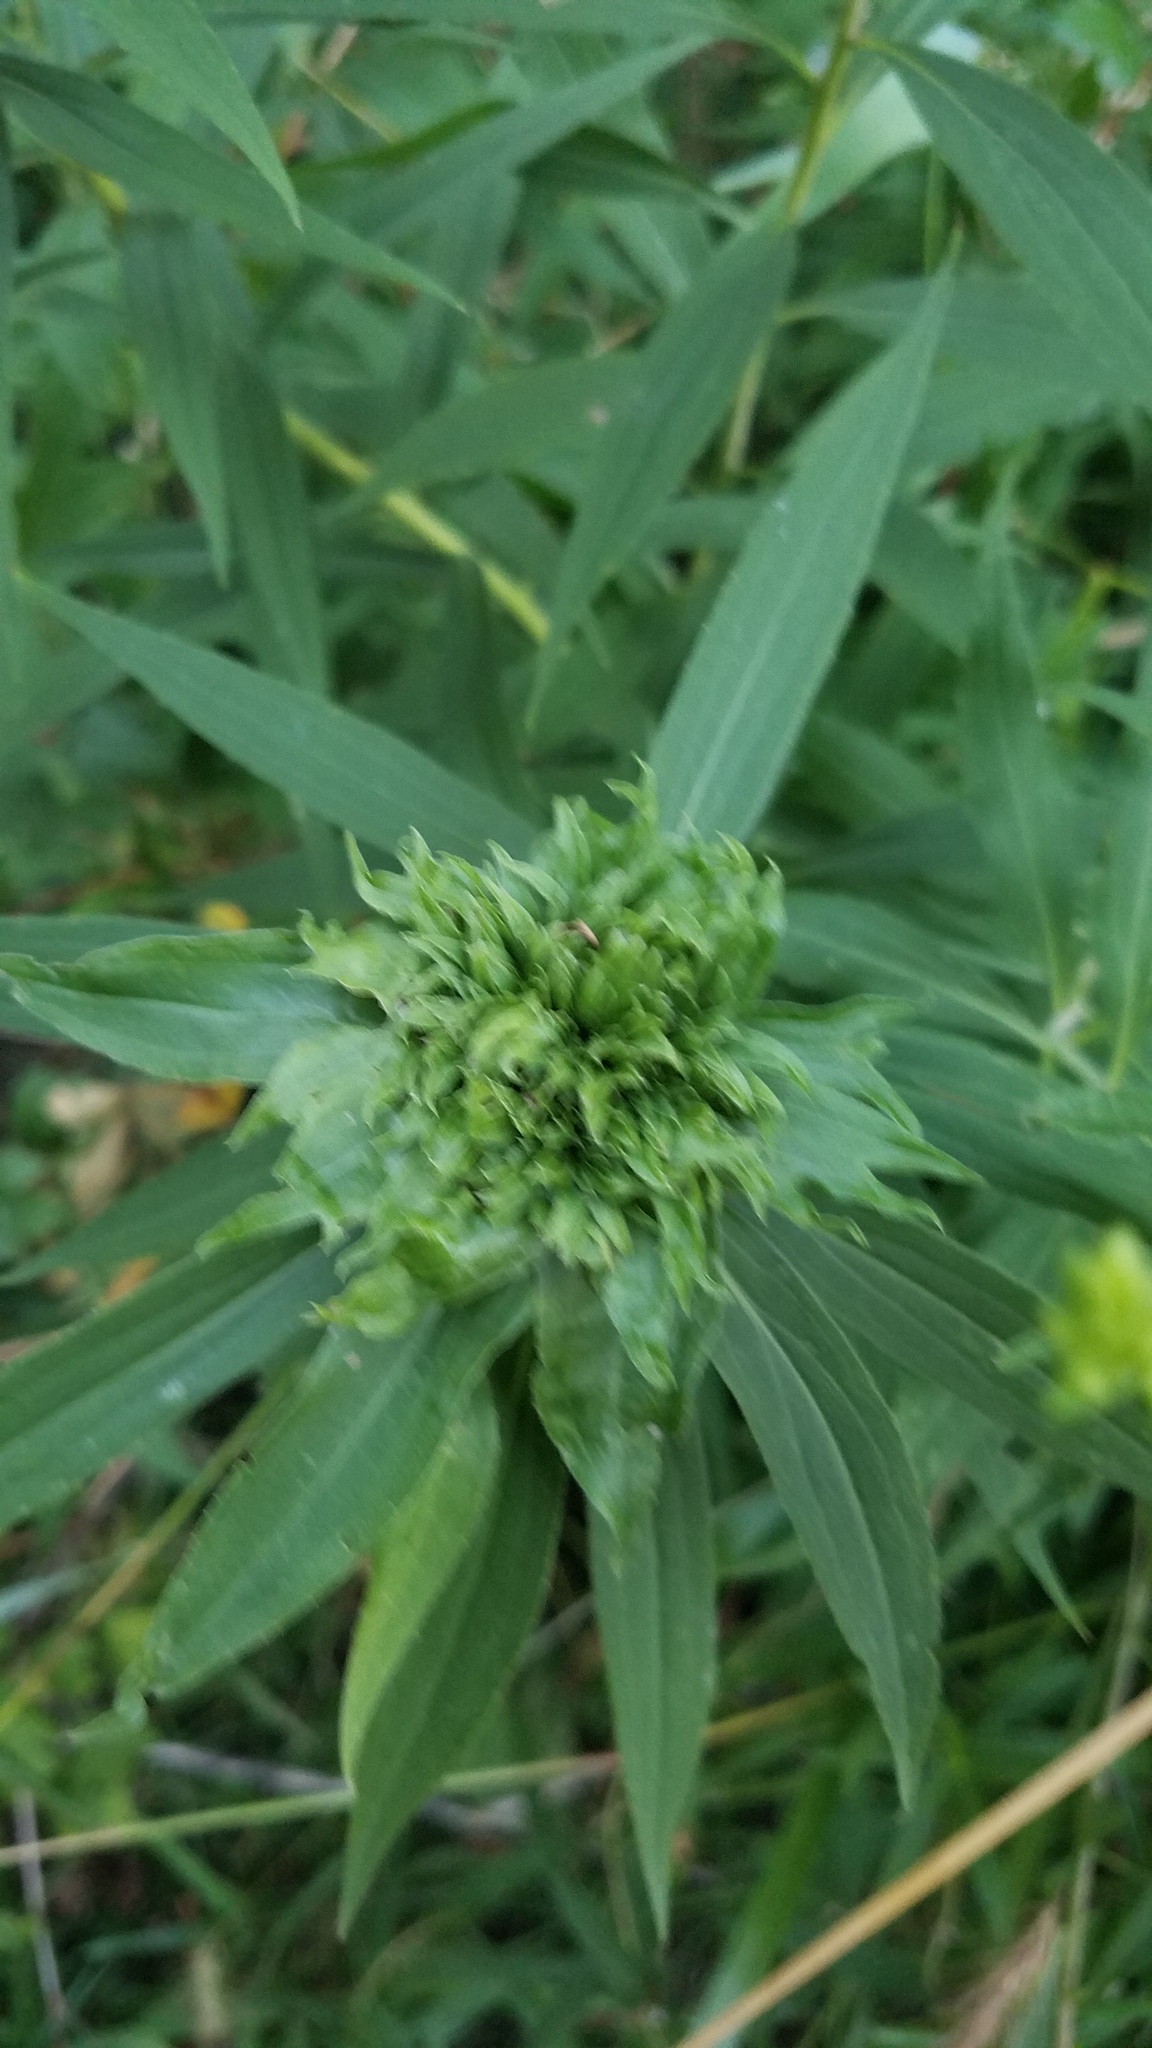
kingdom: Animalia
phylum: Arthropoda
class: Insecta
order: Diptera
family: Cecidomyiidae
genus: Rhopalomyia
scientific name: Rhopalomyia capitata
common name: Giant goldenrod bunch gall midge
